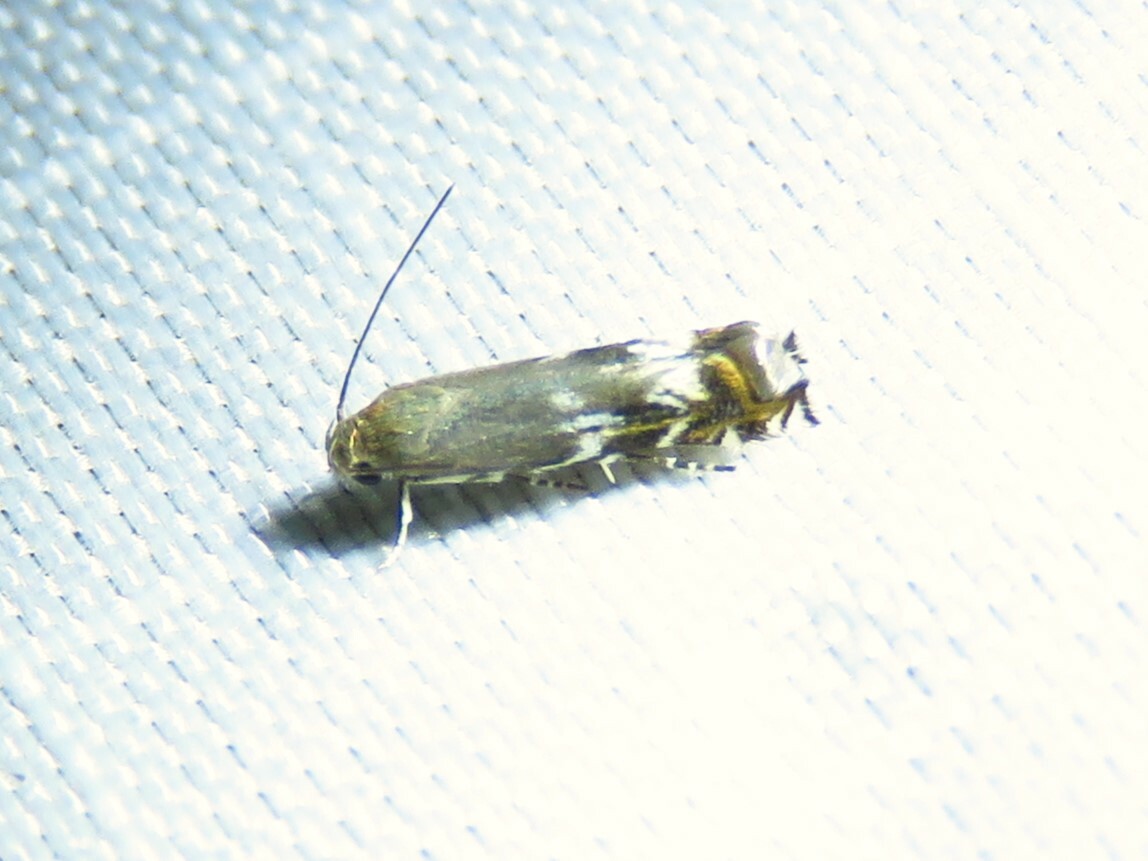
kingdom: Animalia
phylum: Arthropoda
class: Insecta
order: Lepidoptera
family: Gelechiidae
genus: Calliprora
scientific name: Calliprora sexstrigella
